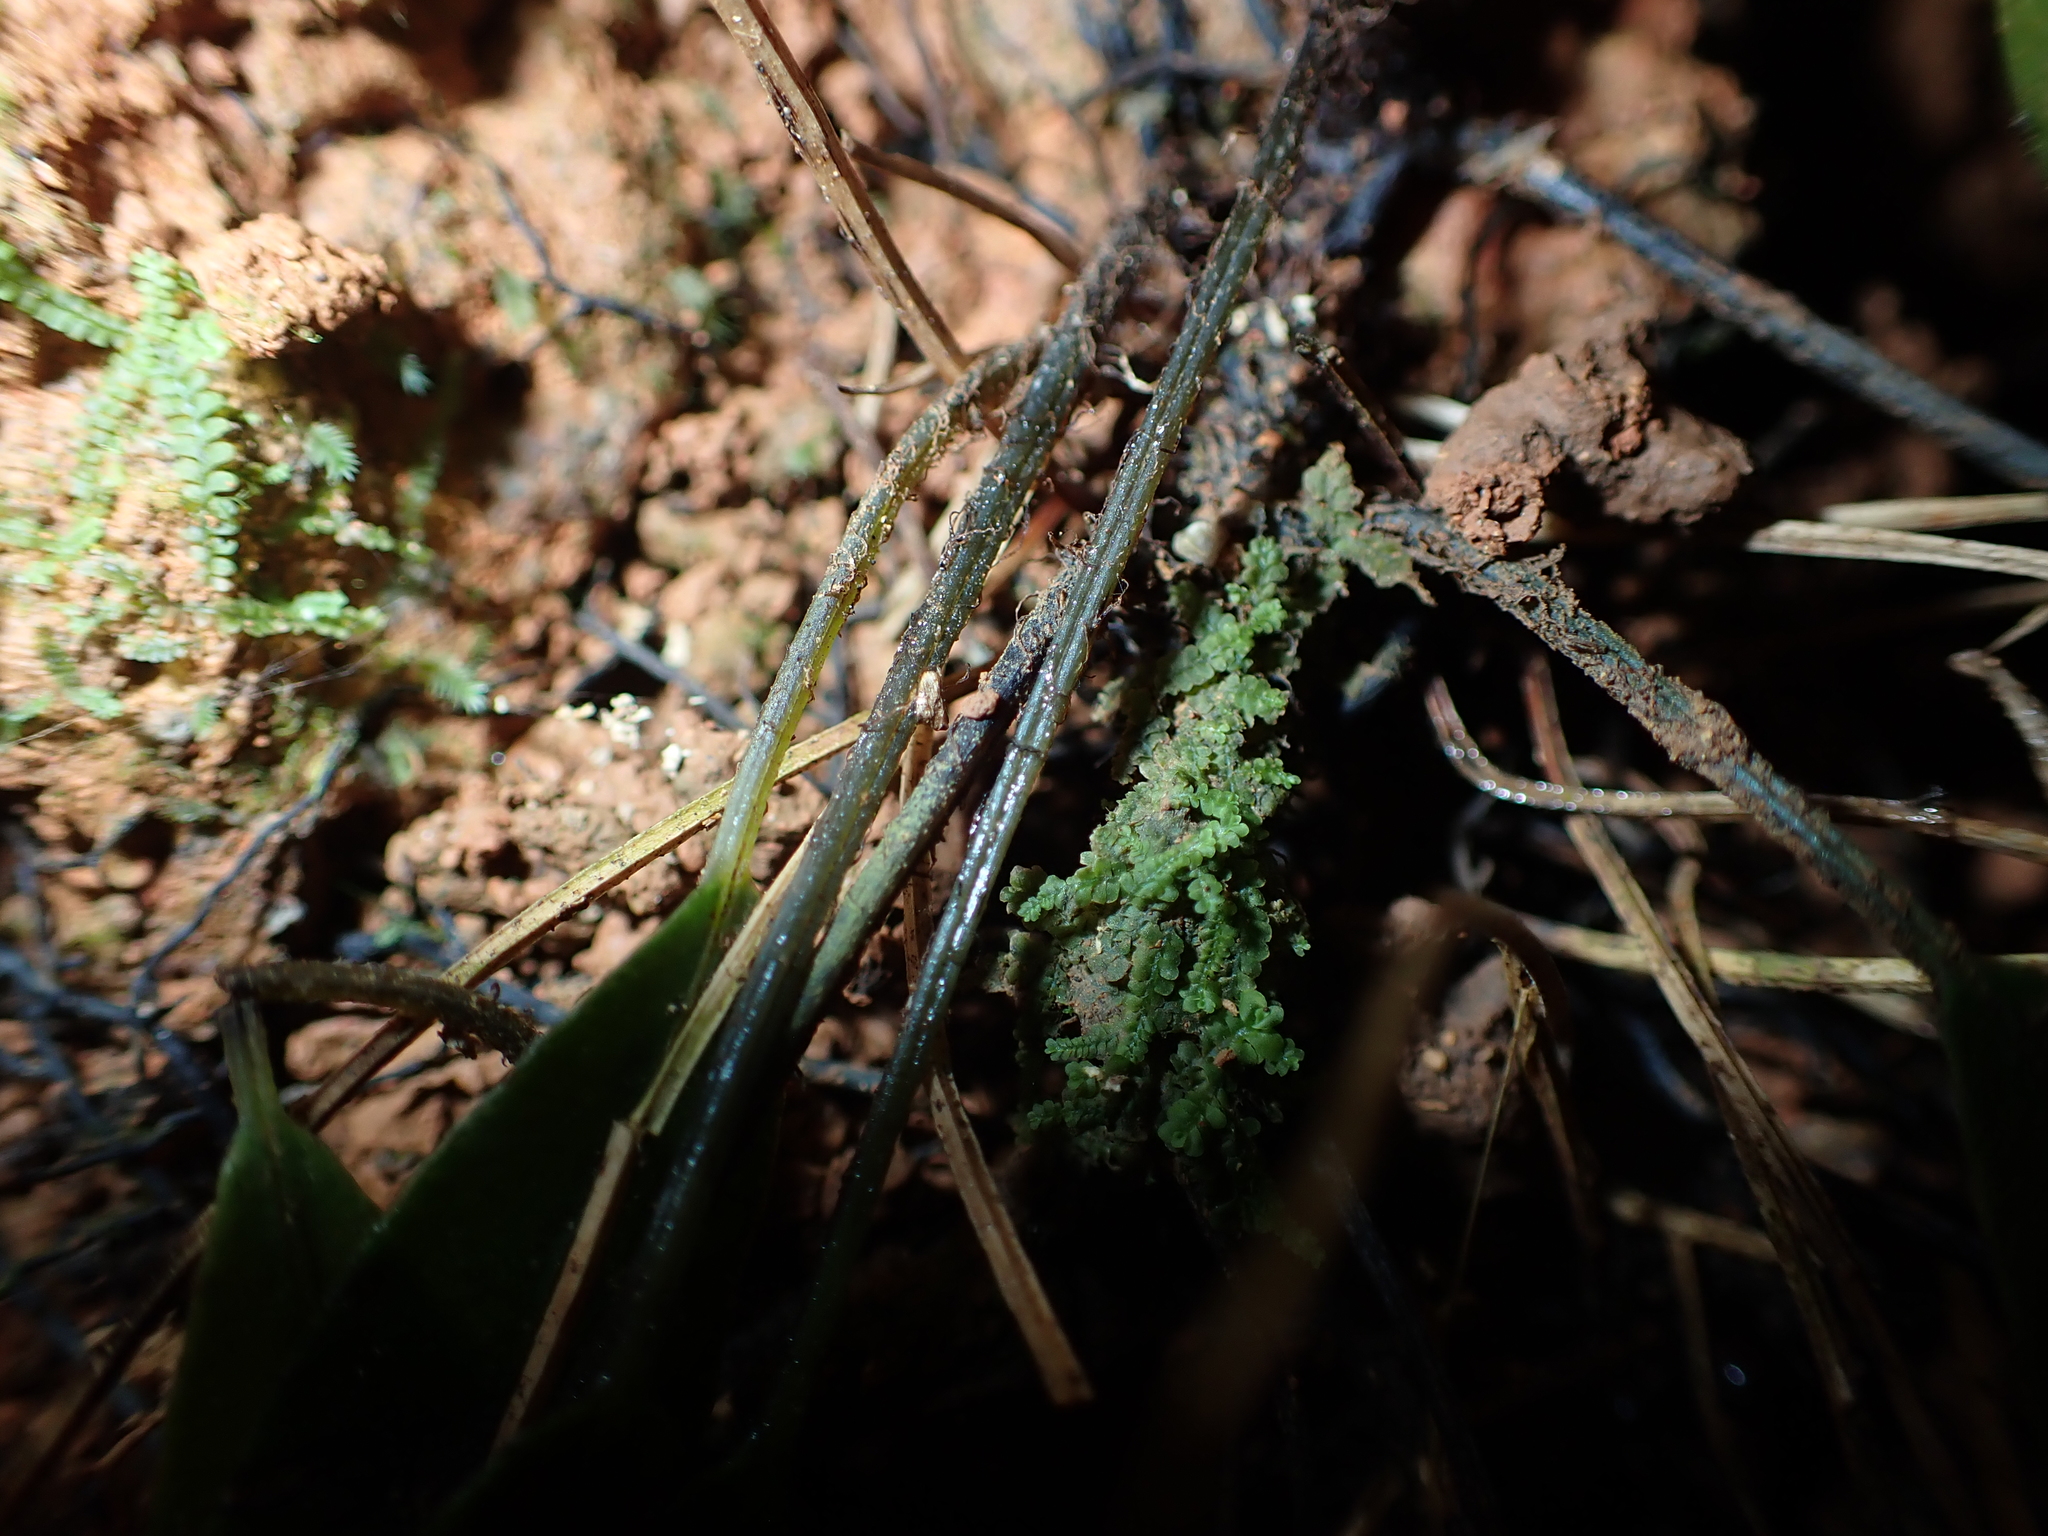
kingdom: Plantae
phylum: Tracheophyta
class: Polypodiopsida
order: Polypodiales
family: Athyriaceae
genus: Deparia
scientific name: Deparia lancea
